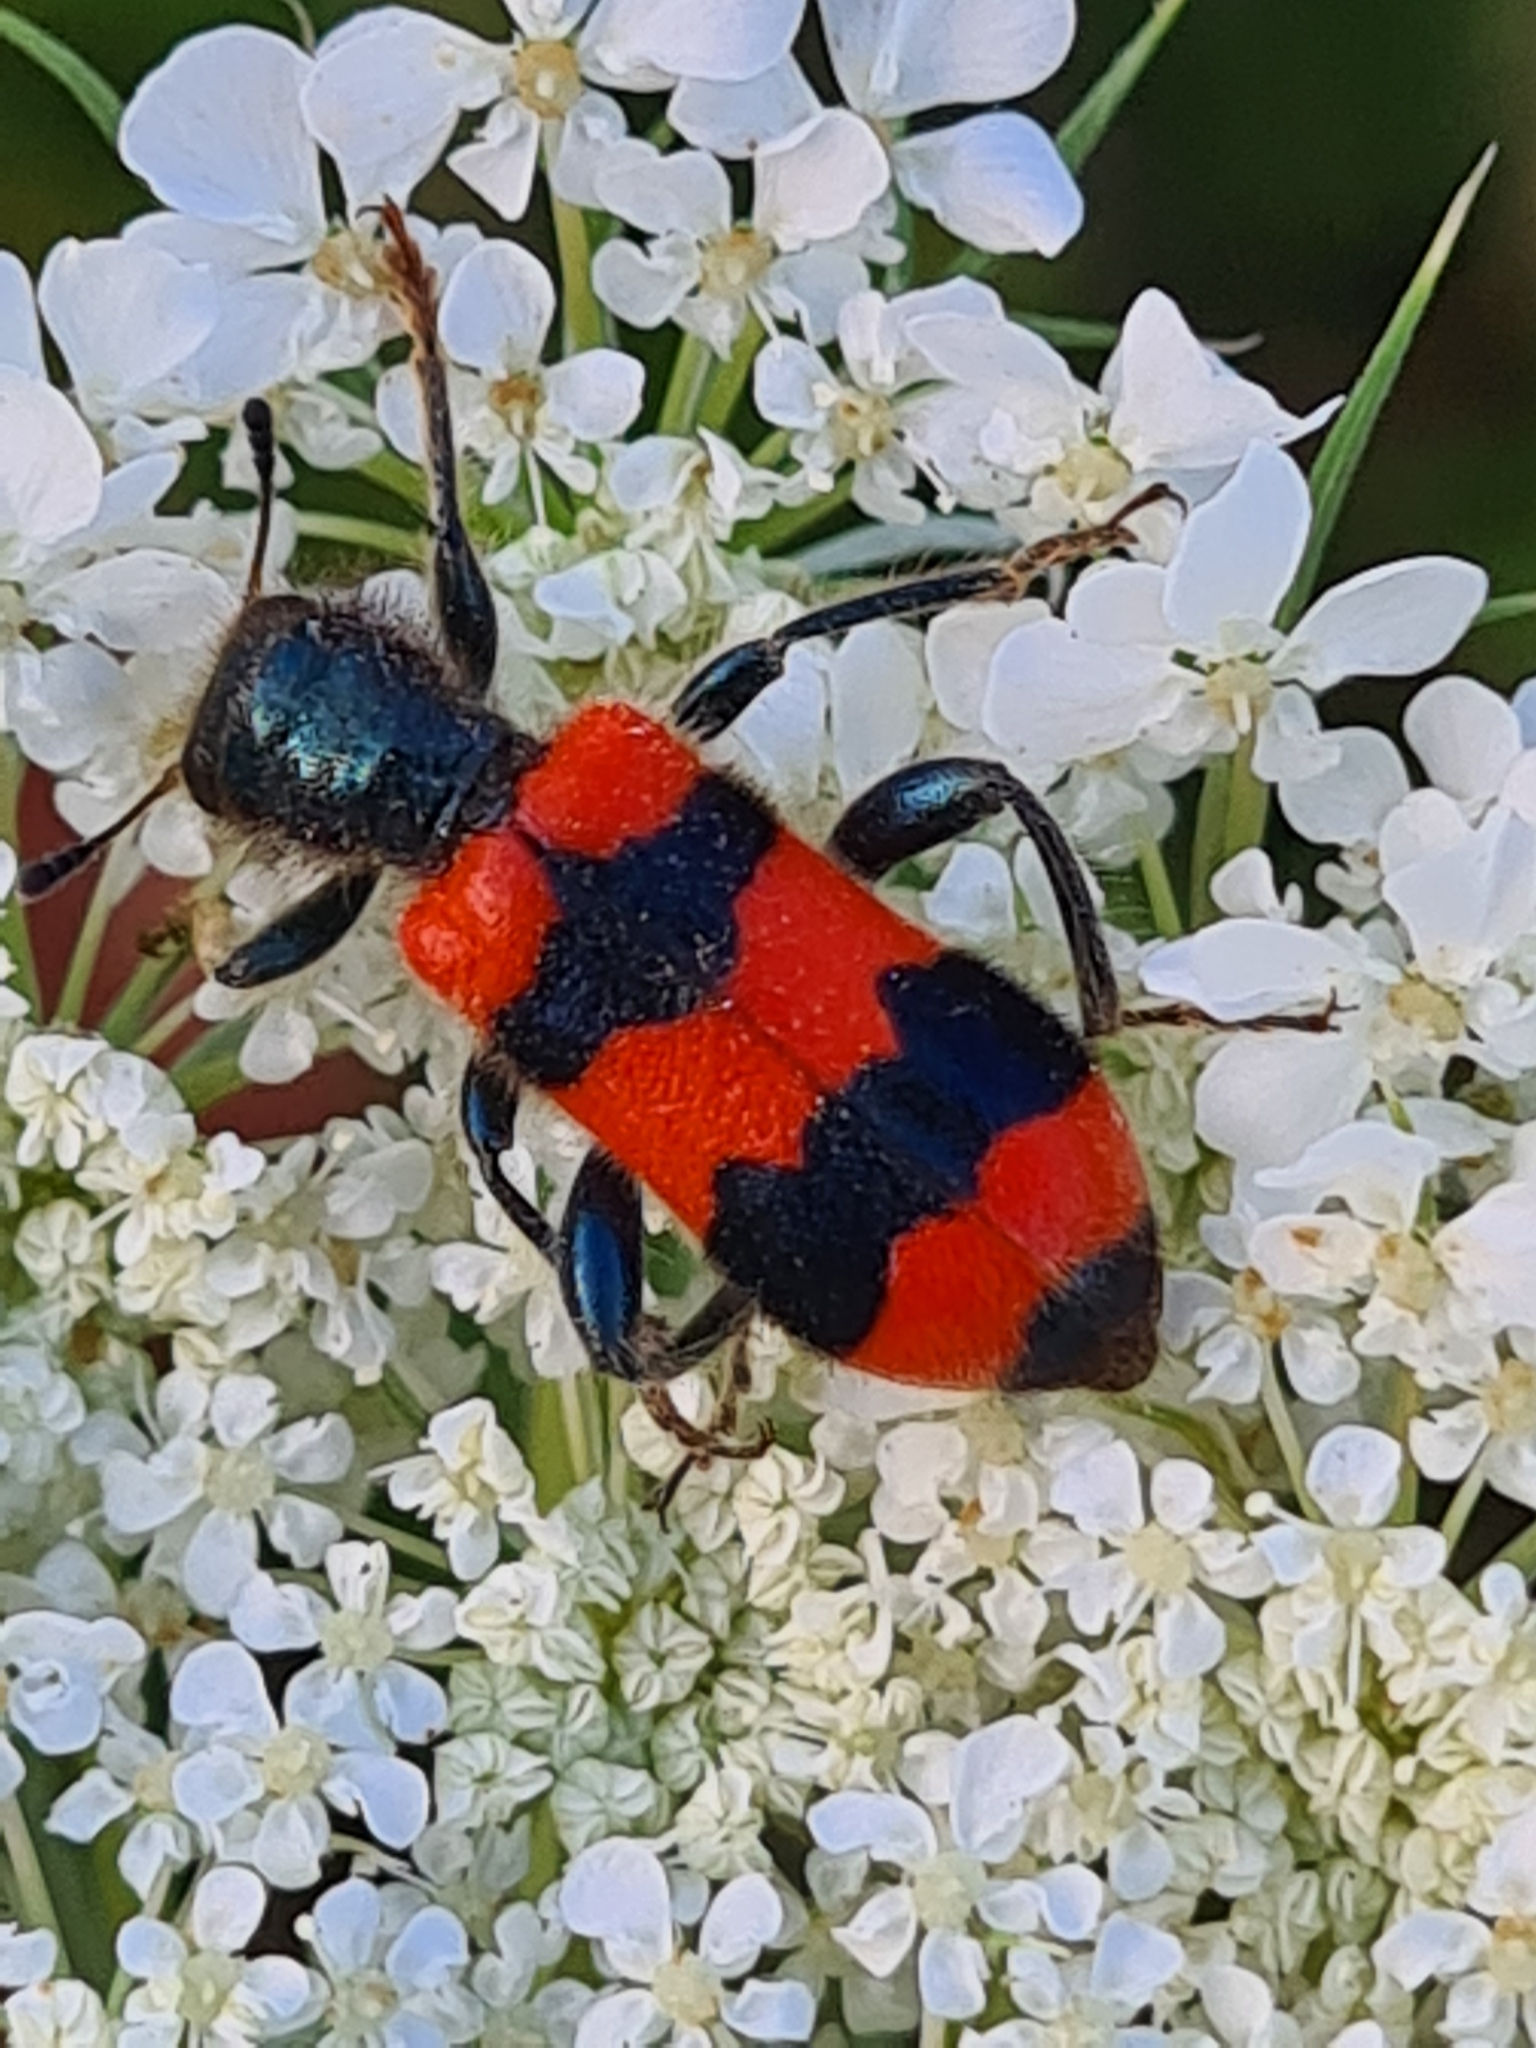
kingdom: Animalia
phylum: Arthropoda
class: Insecta
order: Coleoptera
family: Cleridae
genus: Trichodes
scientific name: Trichodes apiarius
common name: Bee-eating beetle
